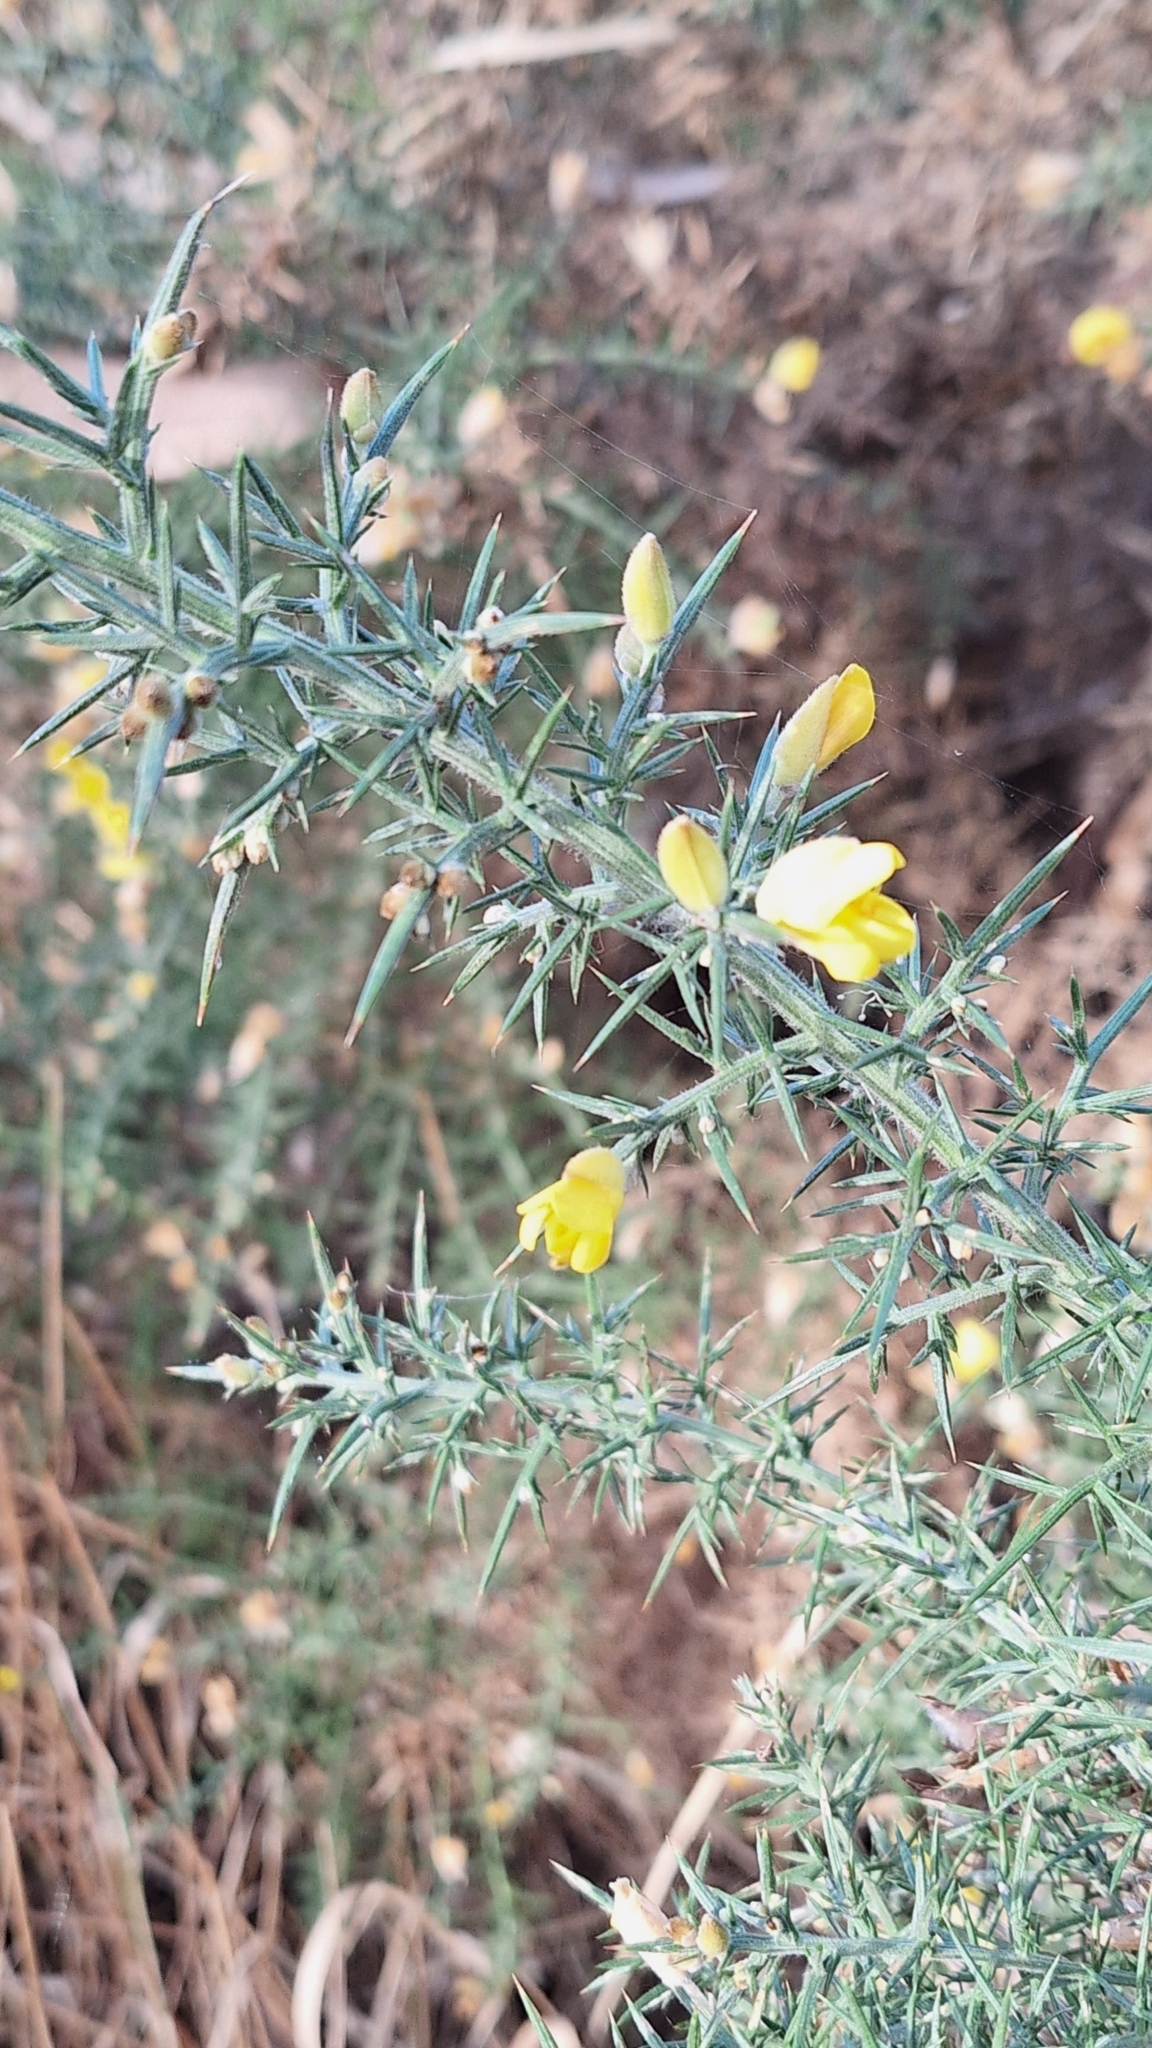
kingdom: Plantae
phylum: Tracheophyta
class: Magnoliopsida
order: Fabales
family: Fabaceae
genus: Ulex
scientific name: Ulex europaeus
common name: Common gorse
